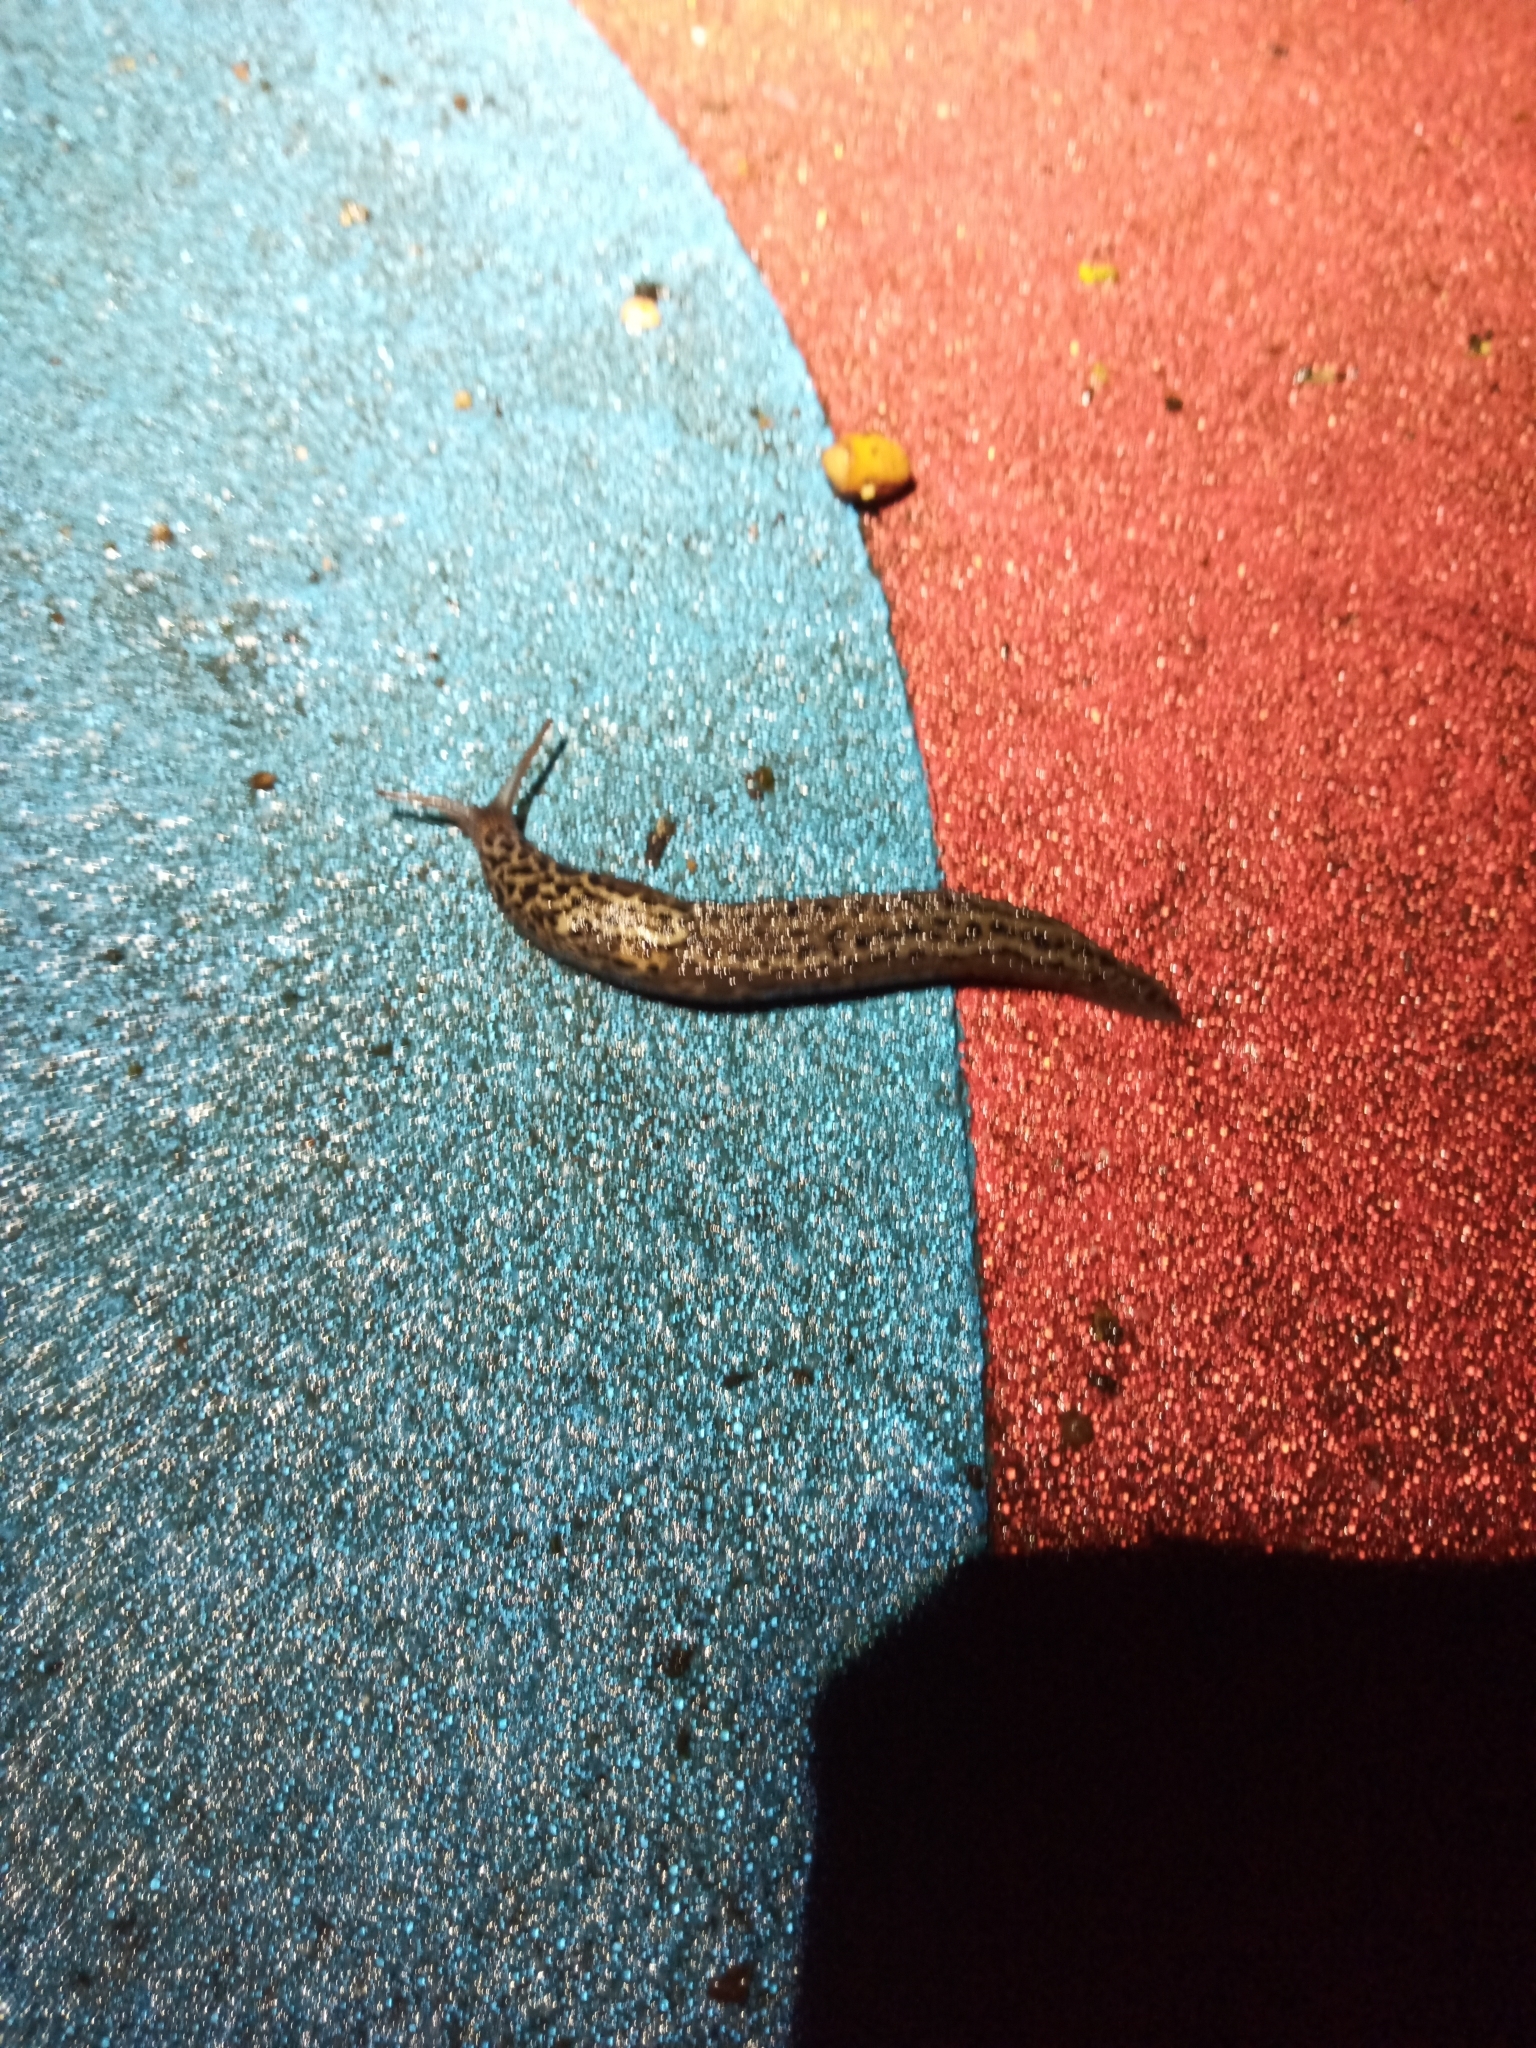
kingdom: Animalia
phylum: Mollusca
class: Gastropoda
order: Stylommatophora
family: Limacidae
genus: Limax
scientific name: Limax maximus
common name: Great grey slug
